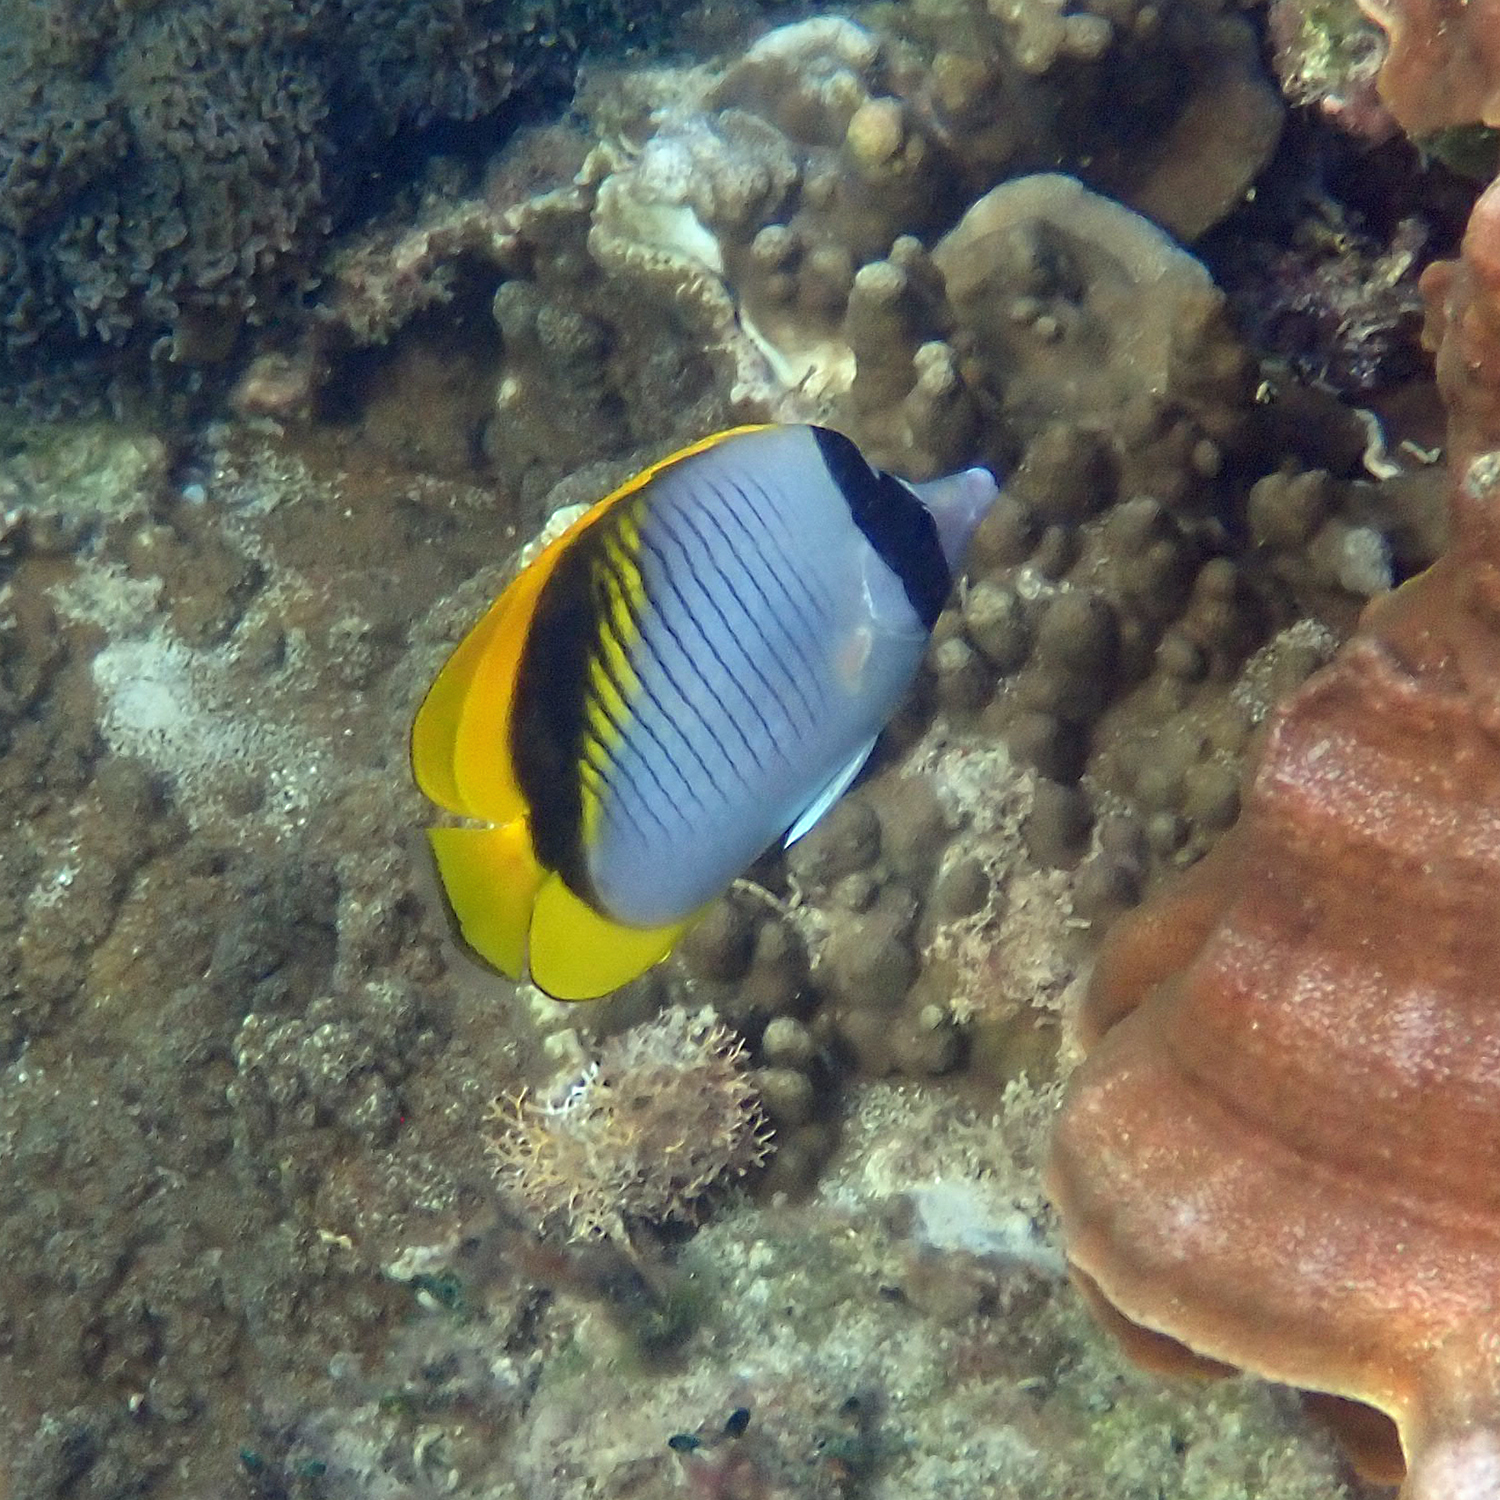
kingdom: Animalia
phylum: Chordata
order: Perciformes
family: Chaetodontidae
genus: Chaetodon
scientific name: Chaetodon lineolatus
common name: Lined butterflyfish
